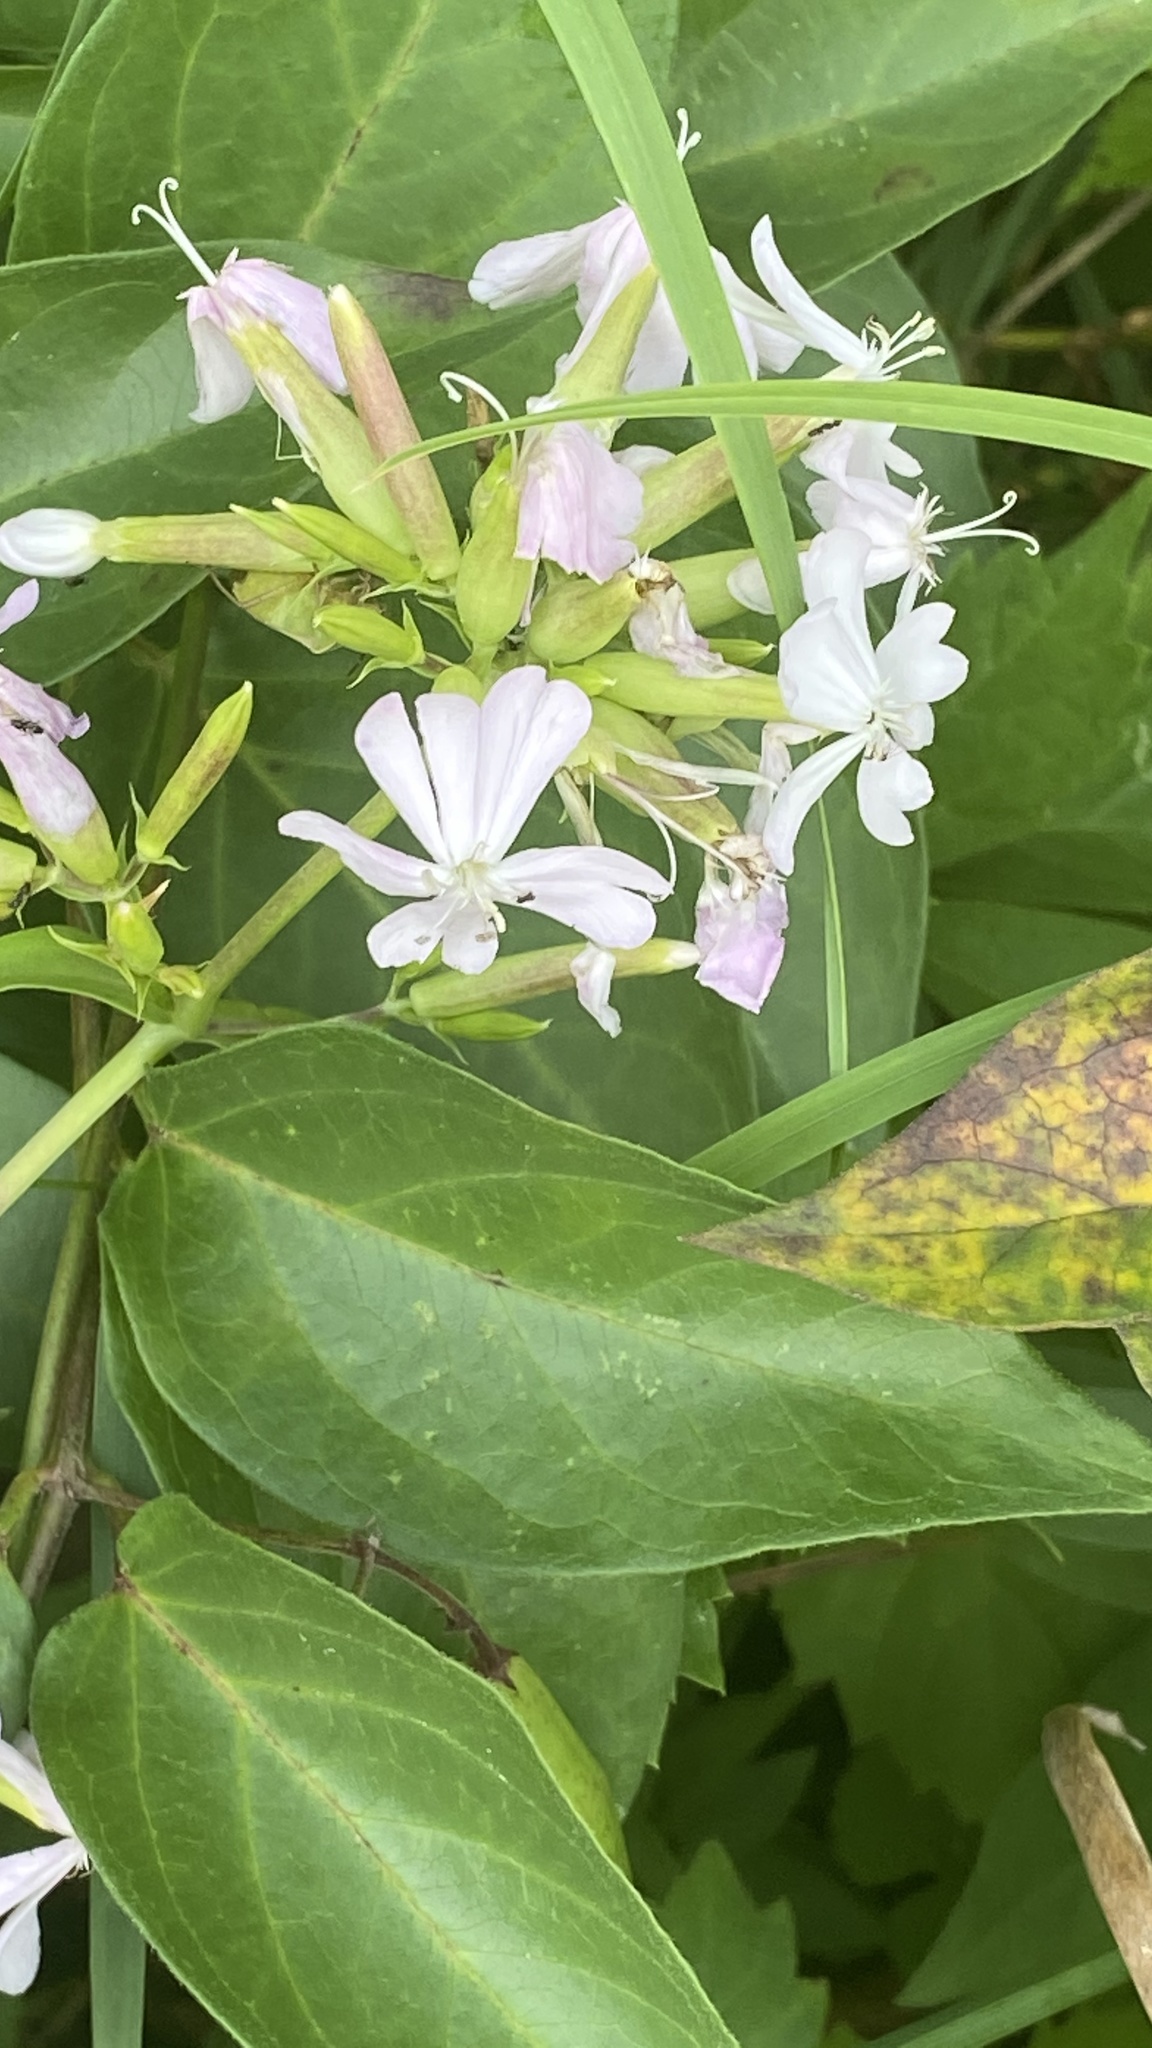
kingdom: Plantae
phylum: Tracheophyta
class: Magnoliopsida
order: Caryophyllales
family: Caryophyllaceae
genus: Saponaria
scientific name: Saponaria officinalis
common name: Soapwort
